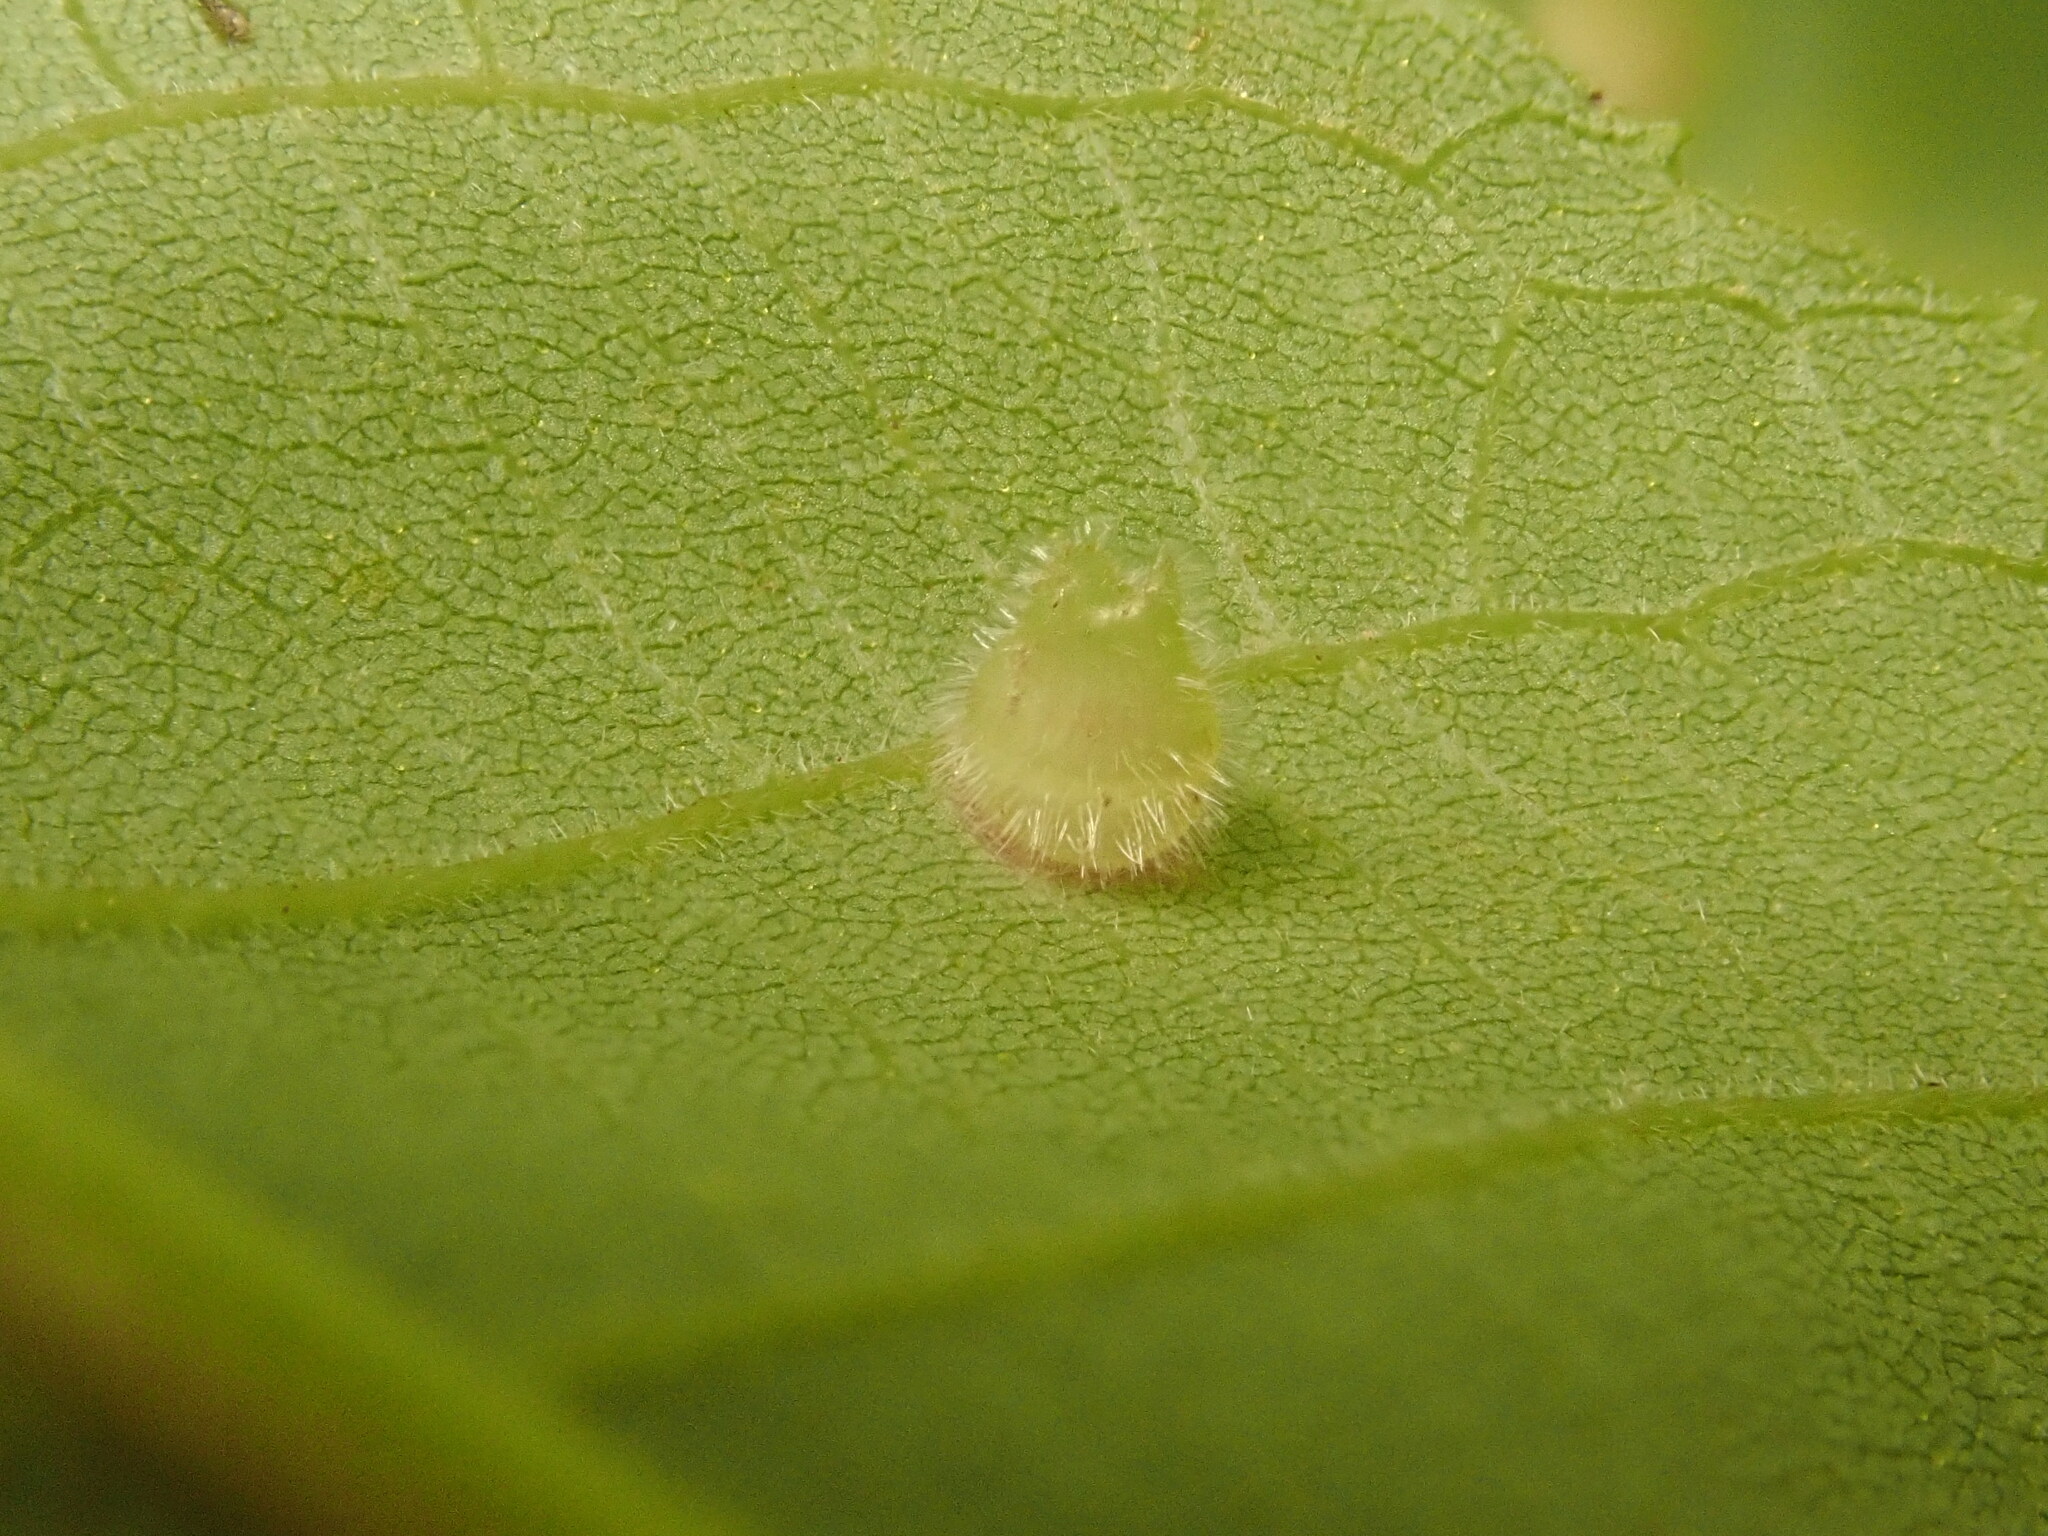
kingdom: Animalia
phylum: Arthropoda
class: Insecta
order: Diptera
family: Cecidomyiidae
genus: Caryomyia
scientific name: Caryomyia inanis
